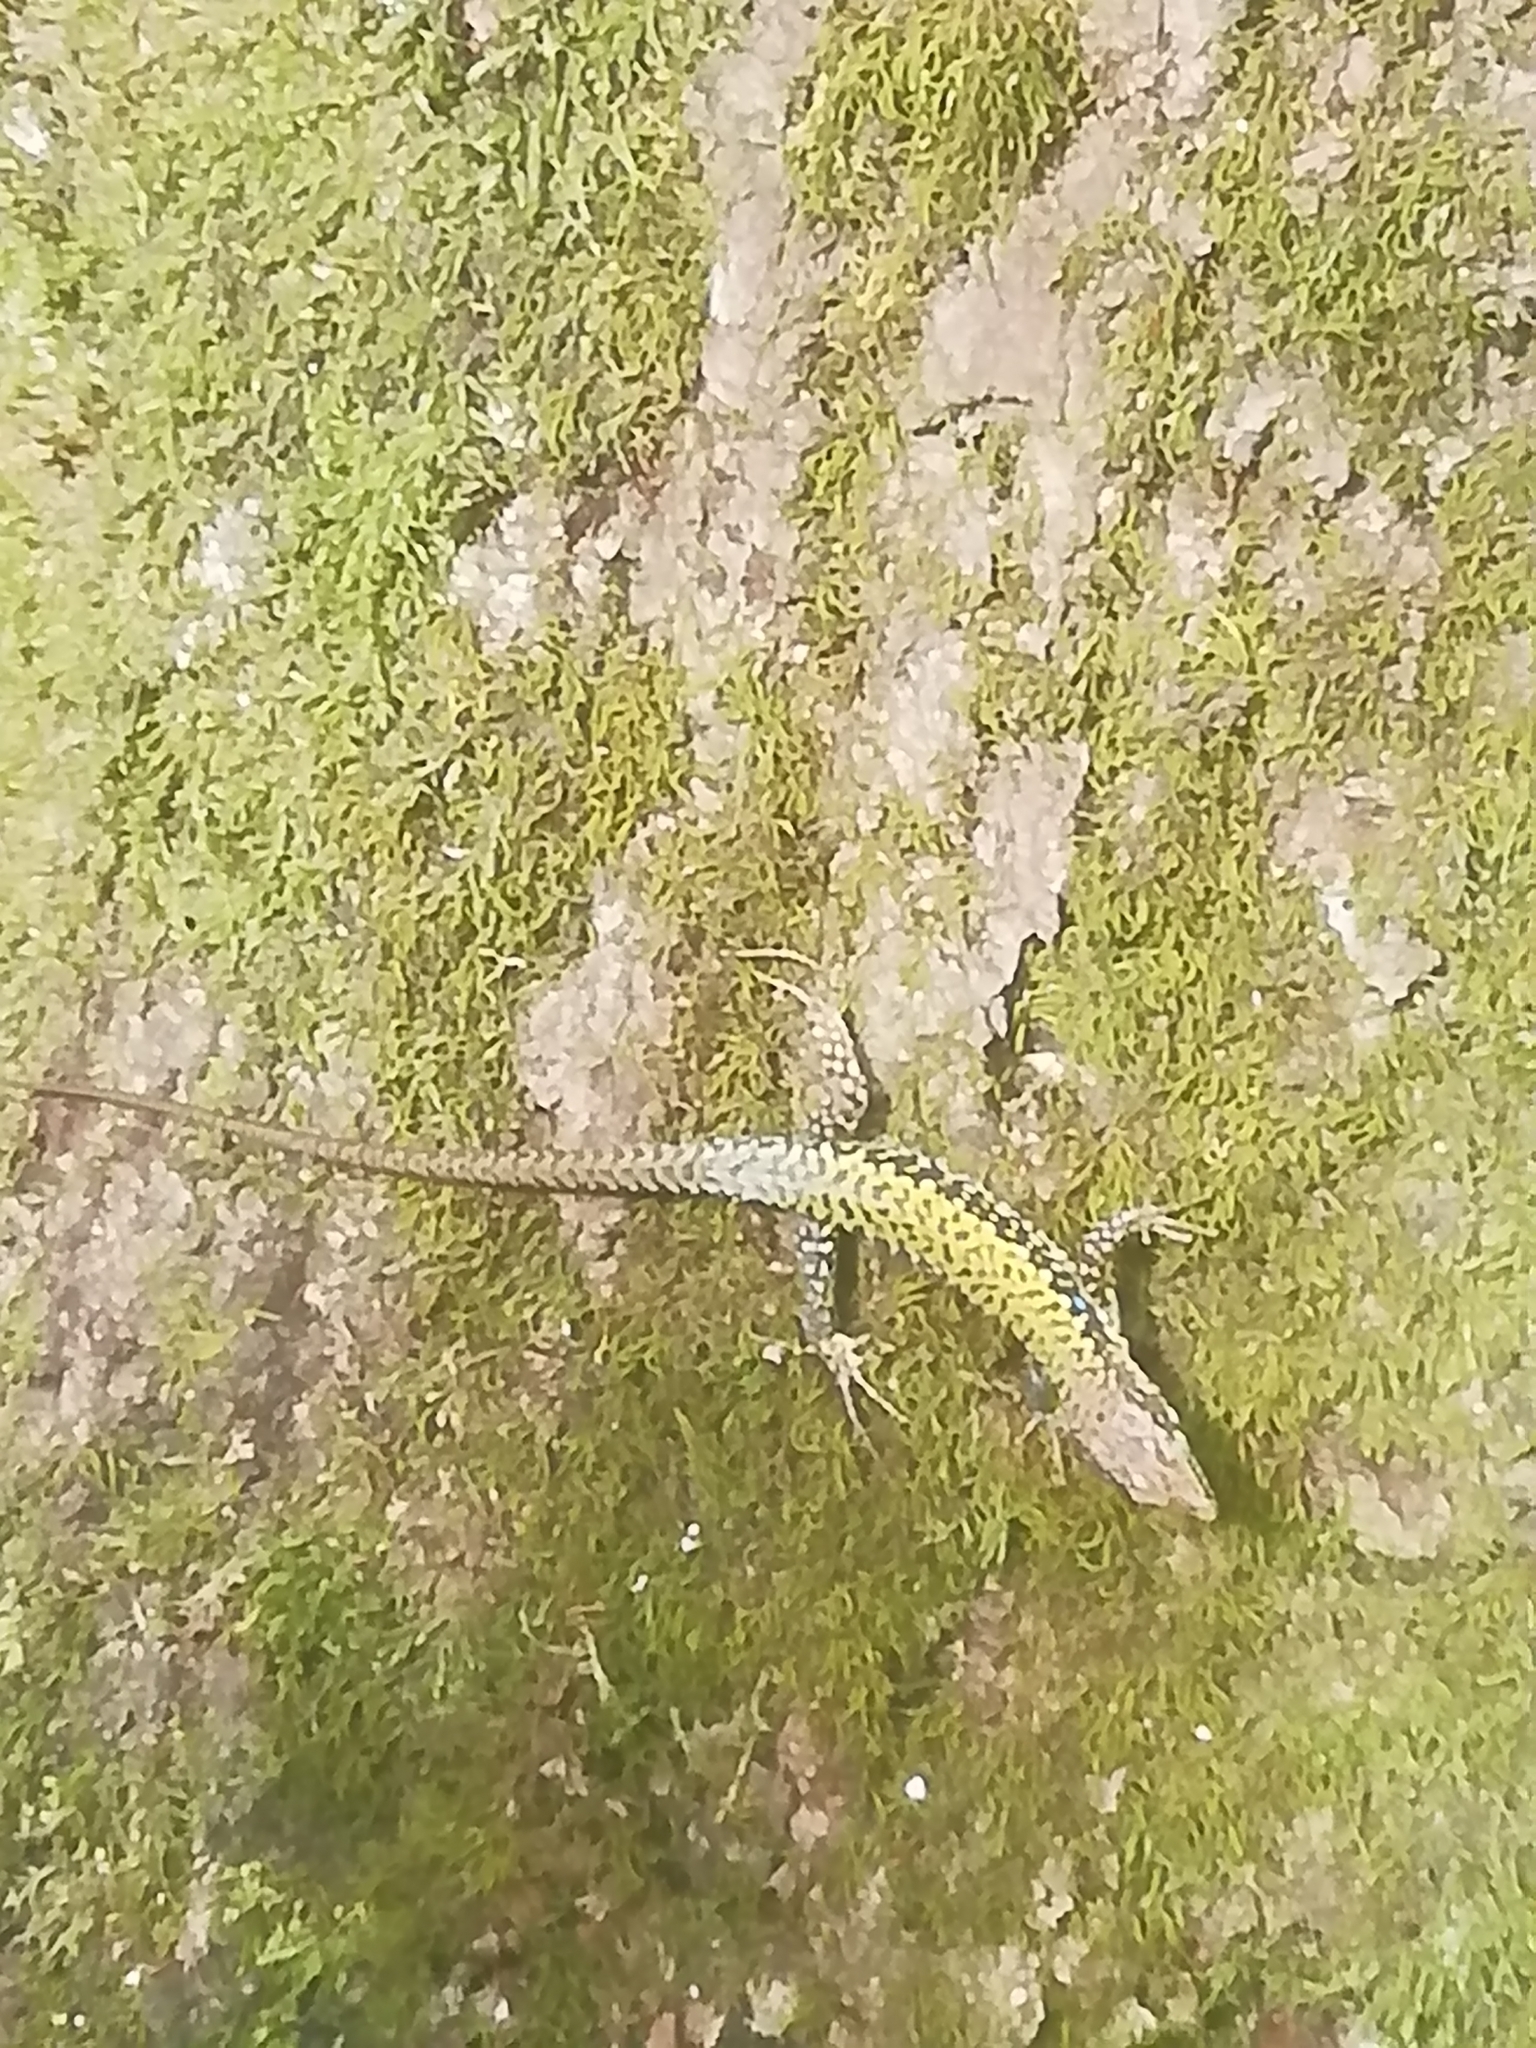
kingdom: Animalia
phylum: Chordata
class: Squamata
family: Lacertidae
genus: Darevskia
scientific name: Darevskia brauneri
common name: Brauner's rock lizard
